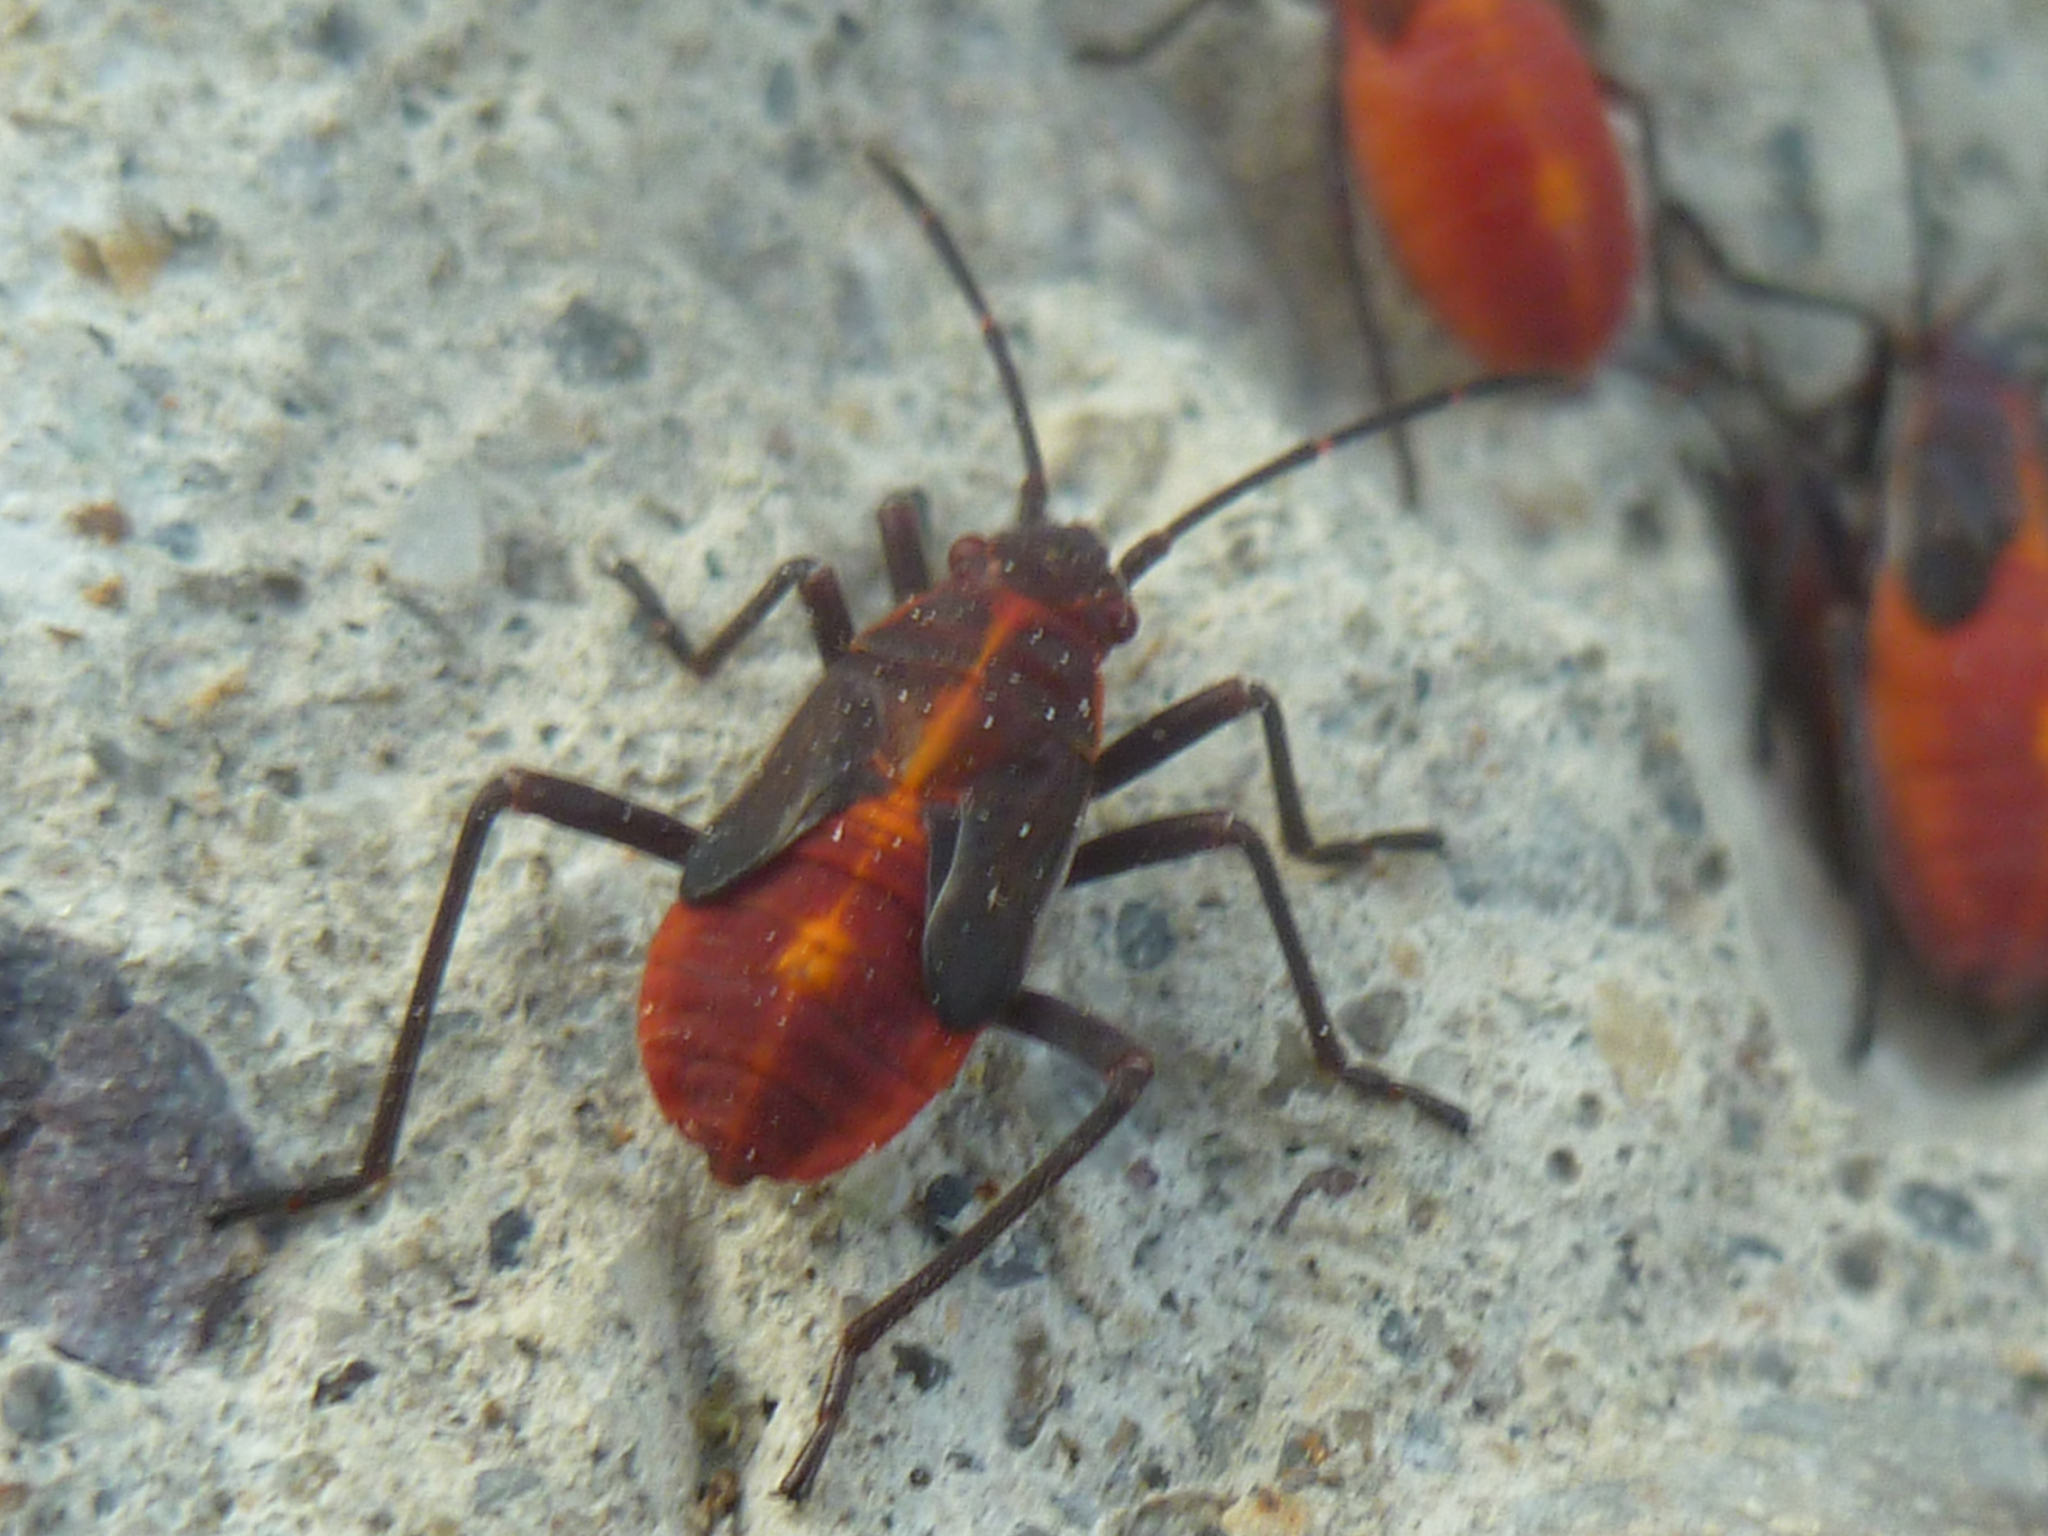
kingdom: Animalia
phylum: Arthropoda
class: Insecta
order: Hemiptera
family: Rhopalidae
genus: Boisea
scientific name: Boisea trivittata
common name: Boxelder bug
